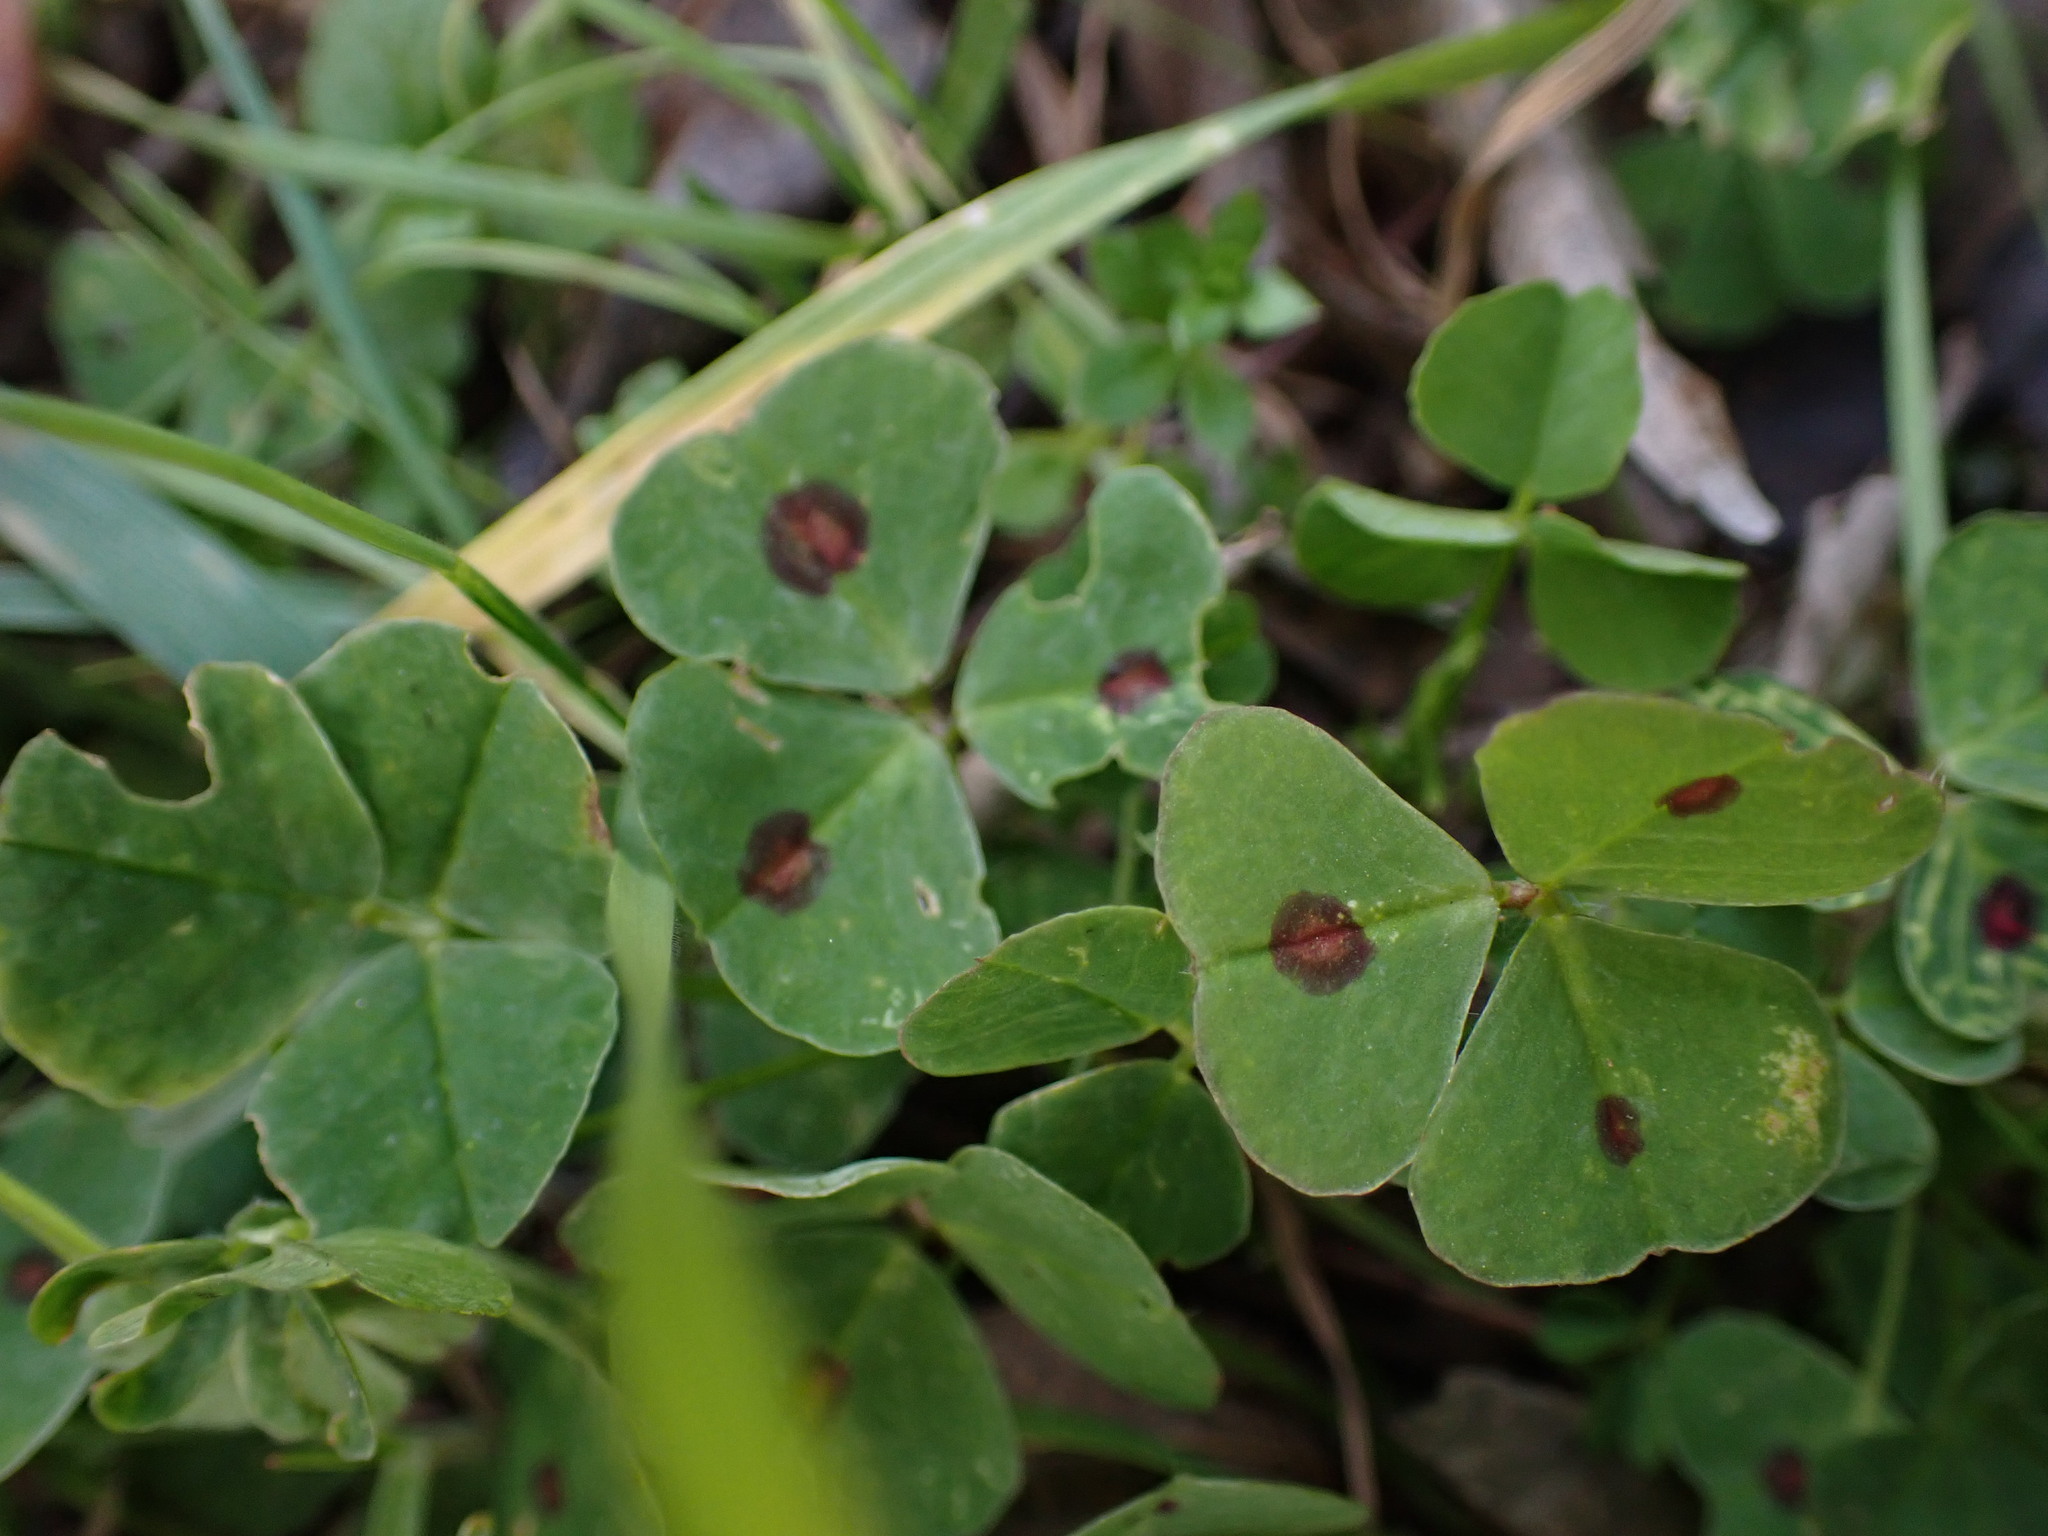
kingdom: Plantae
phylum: Tracheophyta
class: Magnoliopsida
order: Fabales
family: Fabaceae
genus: Medicago
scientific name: Medicago arabica
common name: Spotted medick
